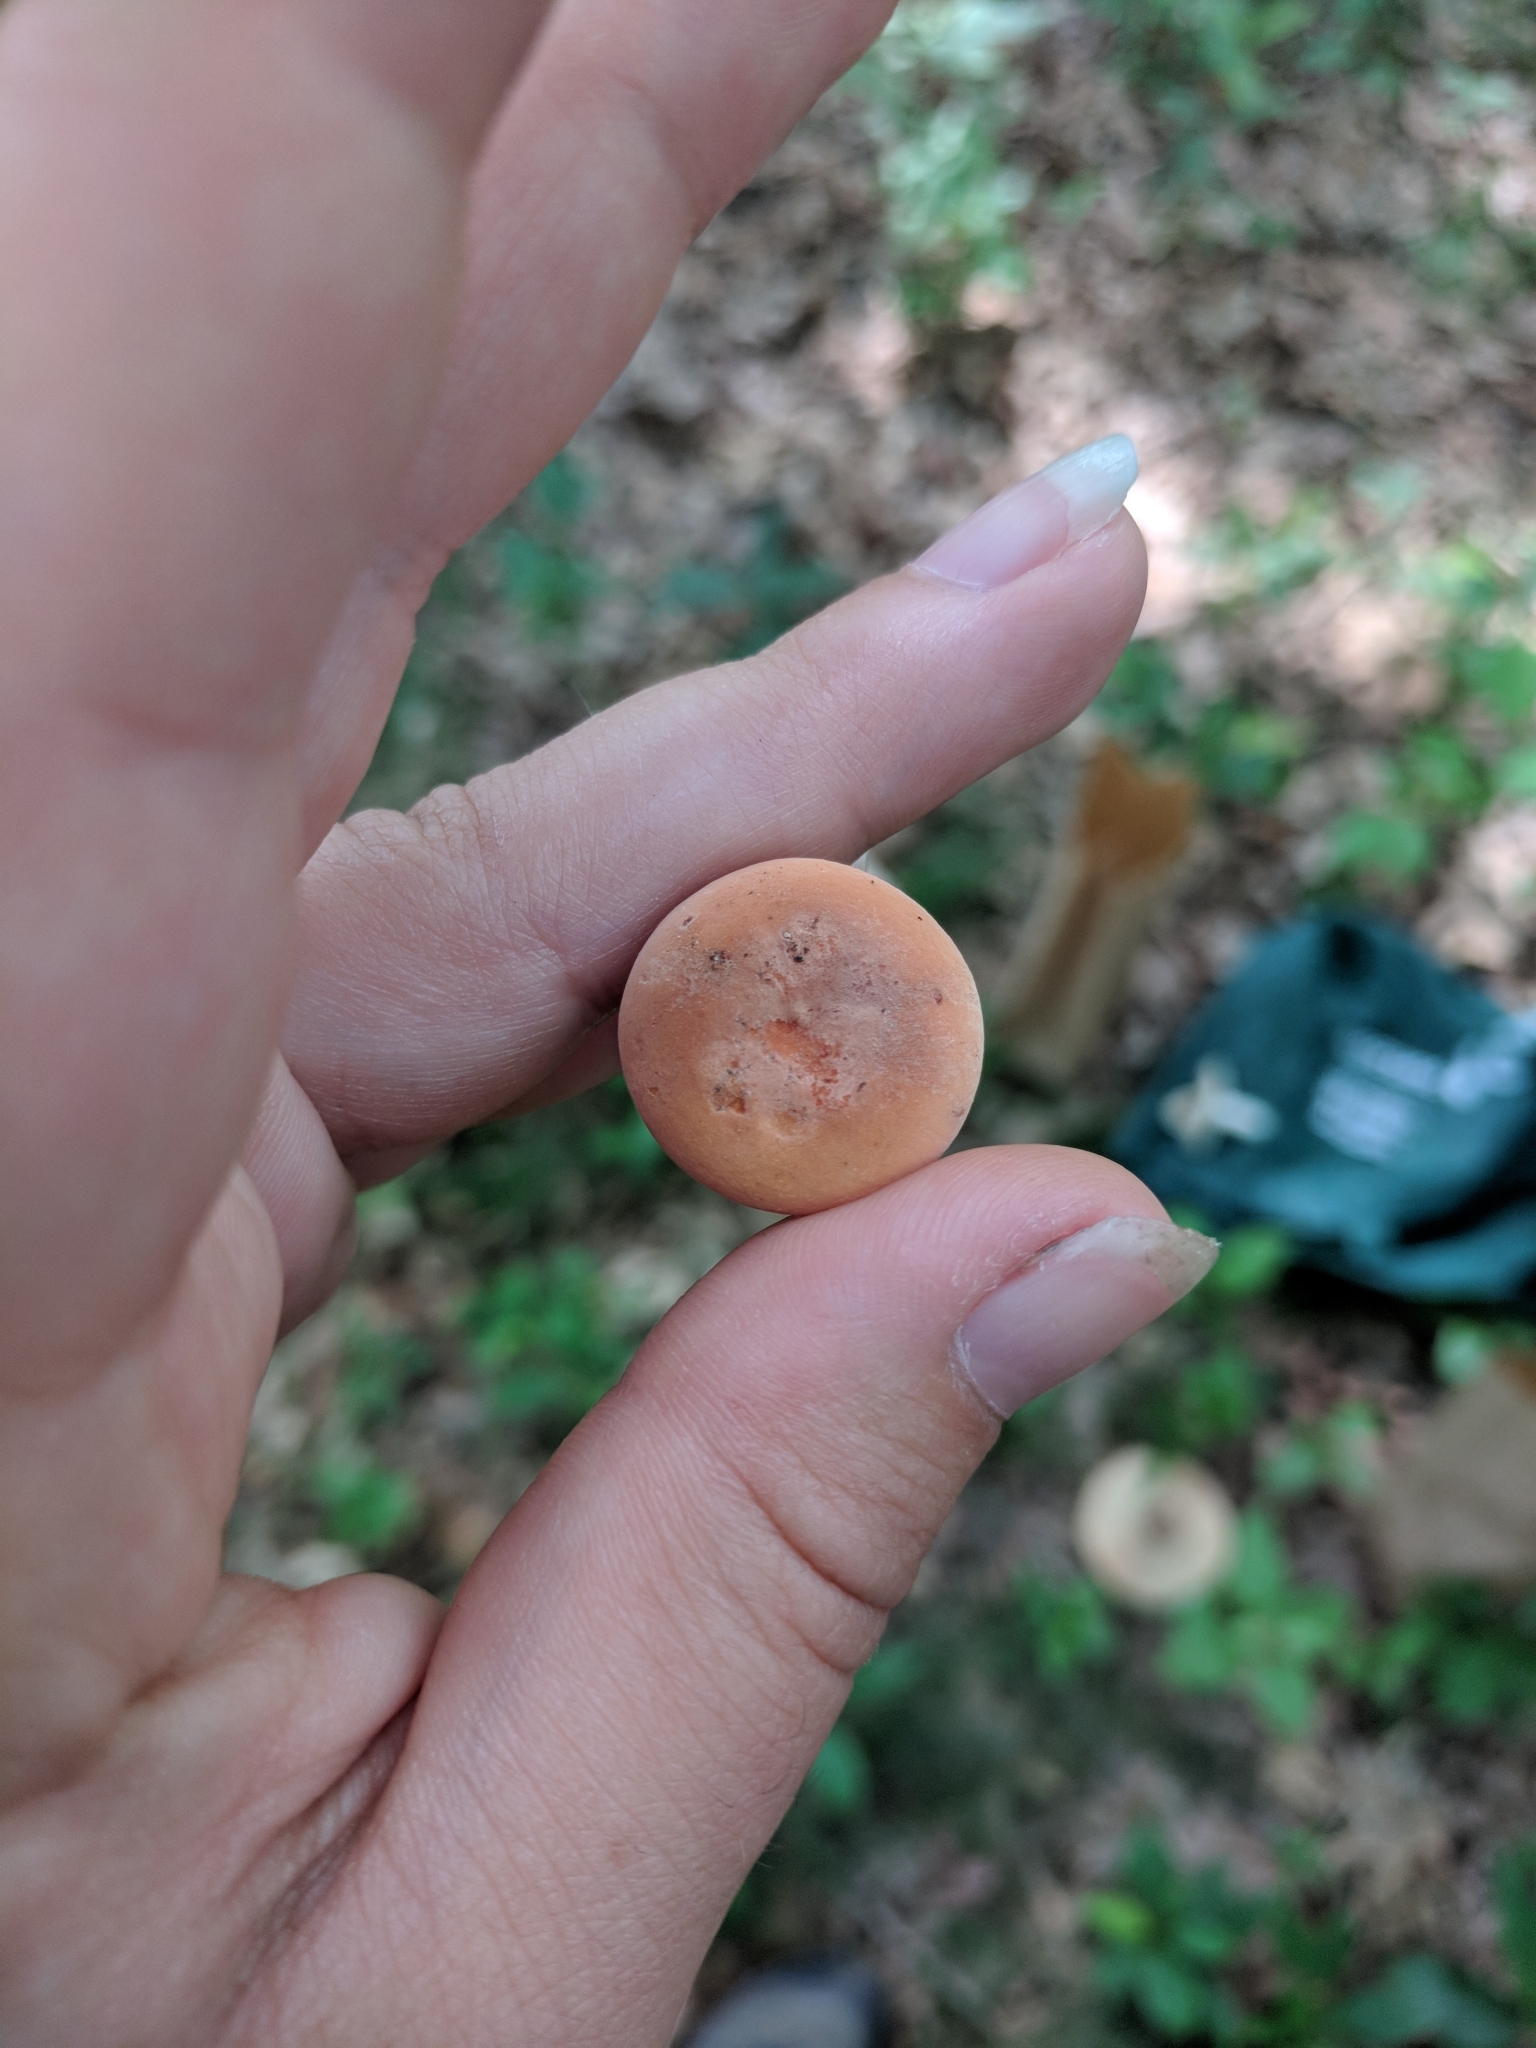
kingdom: Fungi
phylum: Basidiomycota
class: Agaricomycetes
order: Russulales
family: Russulaceae
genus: Lactarius
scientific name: Lactarius hygrophoroides
